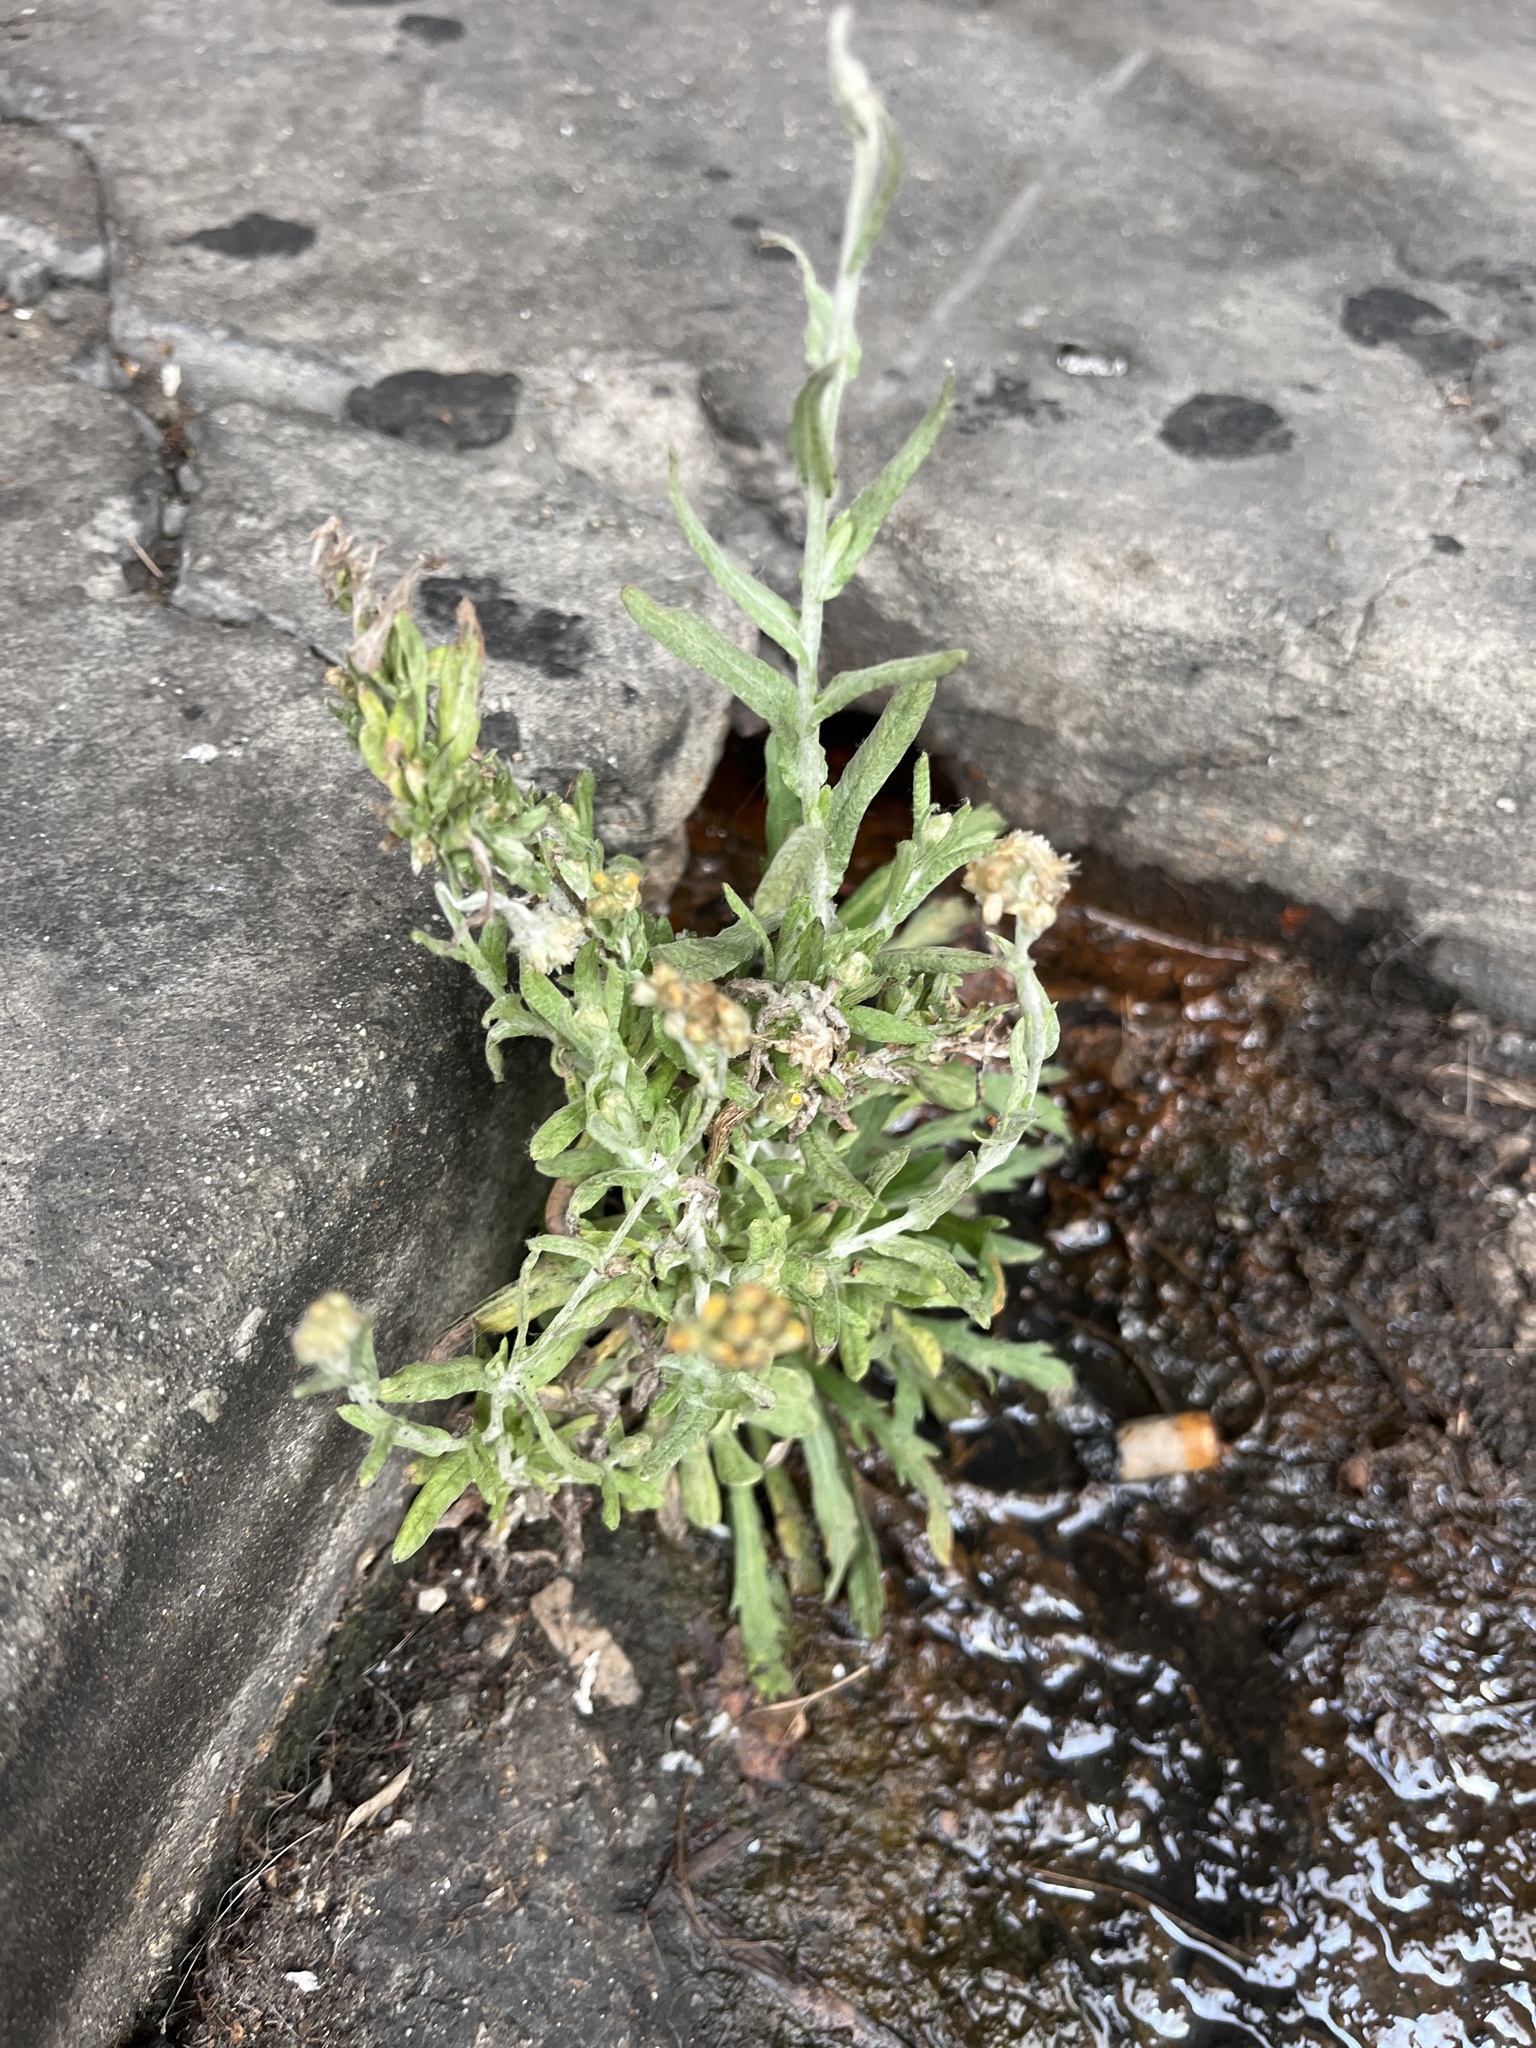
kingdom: Plantae
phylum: Tracheophyta
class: Magnoliopsida
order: Asterales
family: Asteraceae
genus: Helichrysum
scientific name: Helichrysum luteoalbum
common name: Daisy
